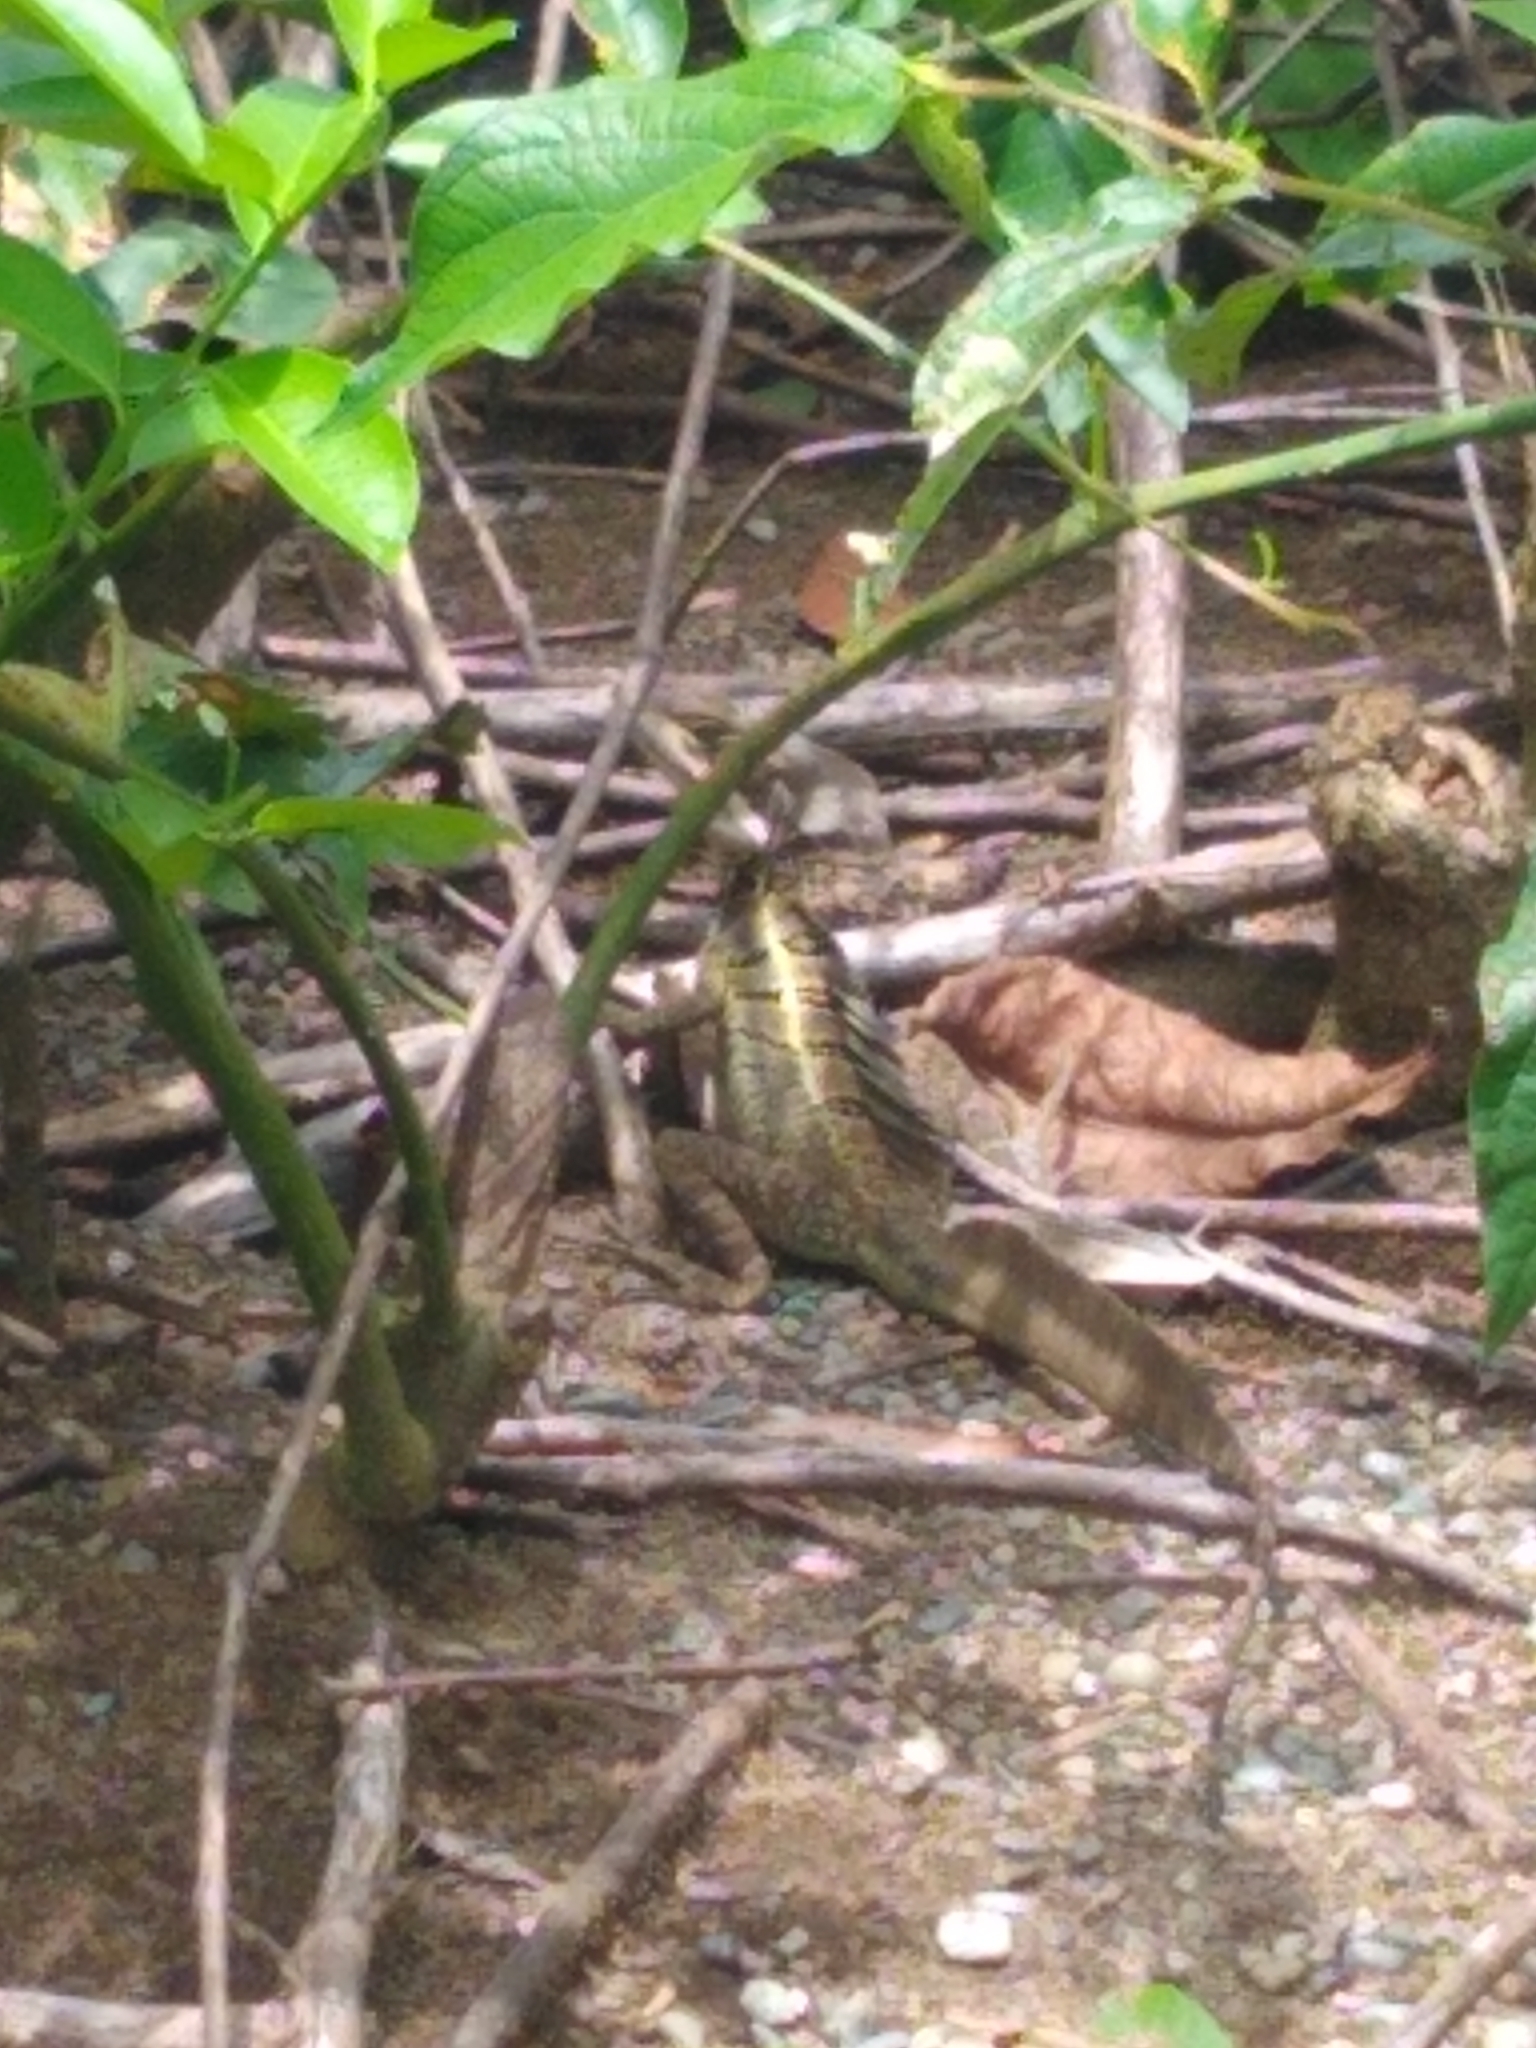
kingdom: Animalia
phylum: Chordata
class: Squamata
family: Corytophanidae
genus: Basiliscus
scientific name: Basiliscus basiliscus
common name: Common basilisk
